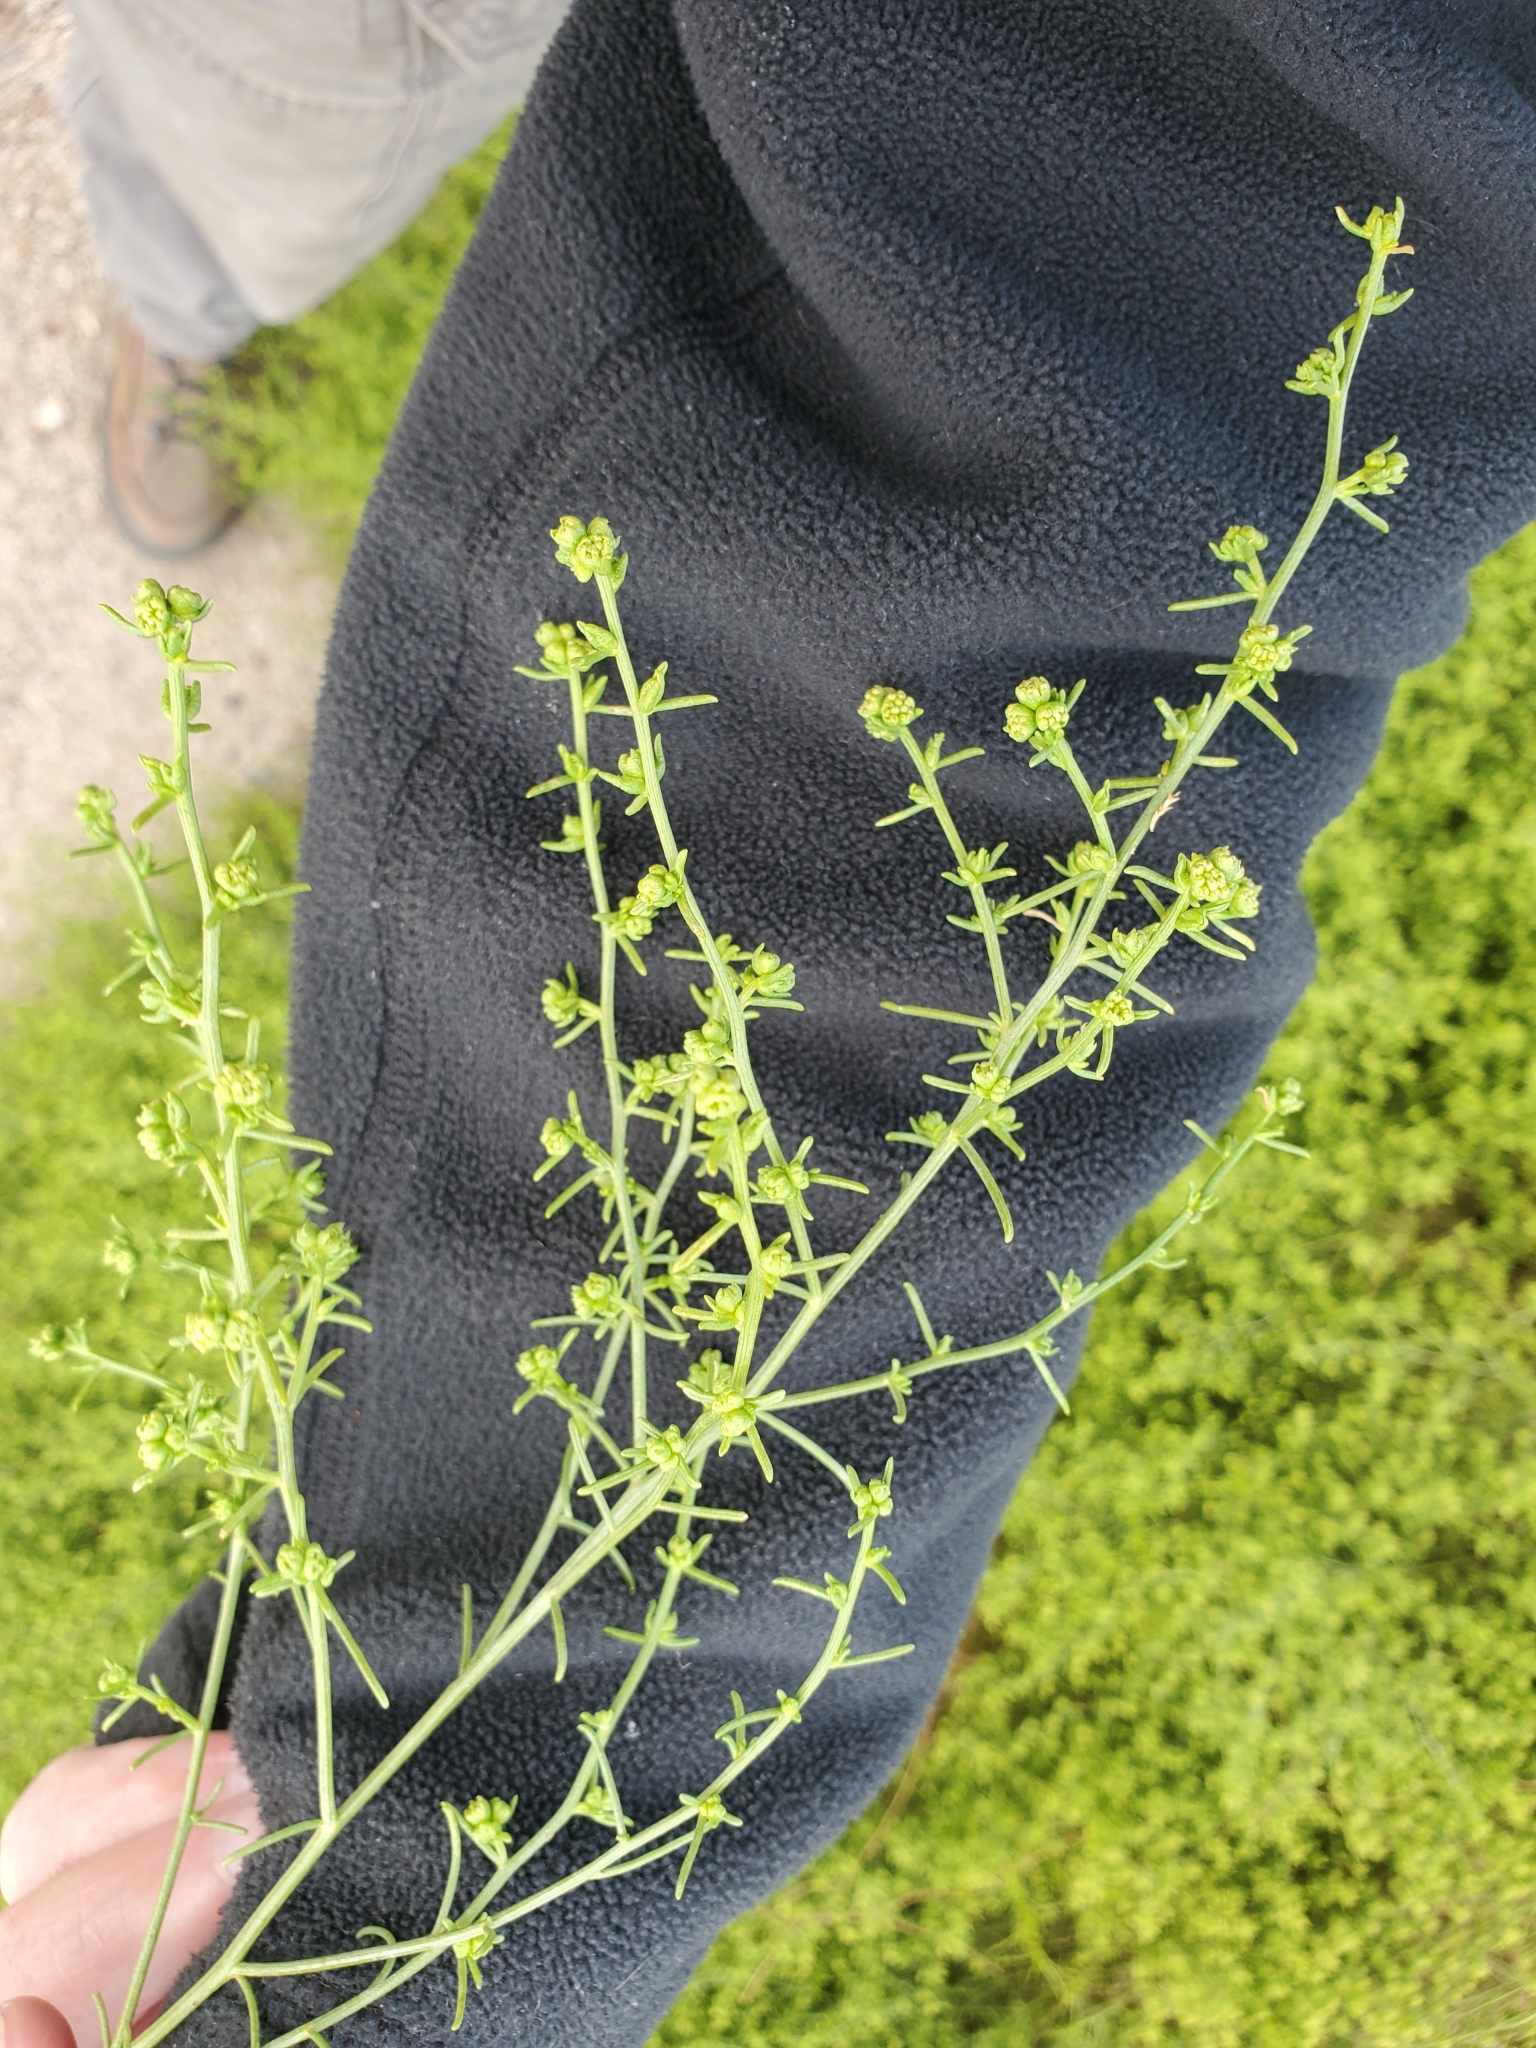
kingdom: Plantae
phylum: Tracheophyta
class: Magnoliopsida
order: Asterales
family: Asteraceae
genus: Ambrosia
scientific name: Ambrosia salsola
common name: Burrobrush
